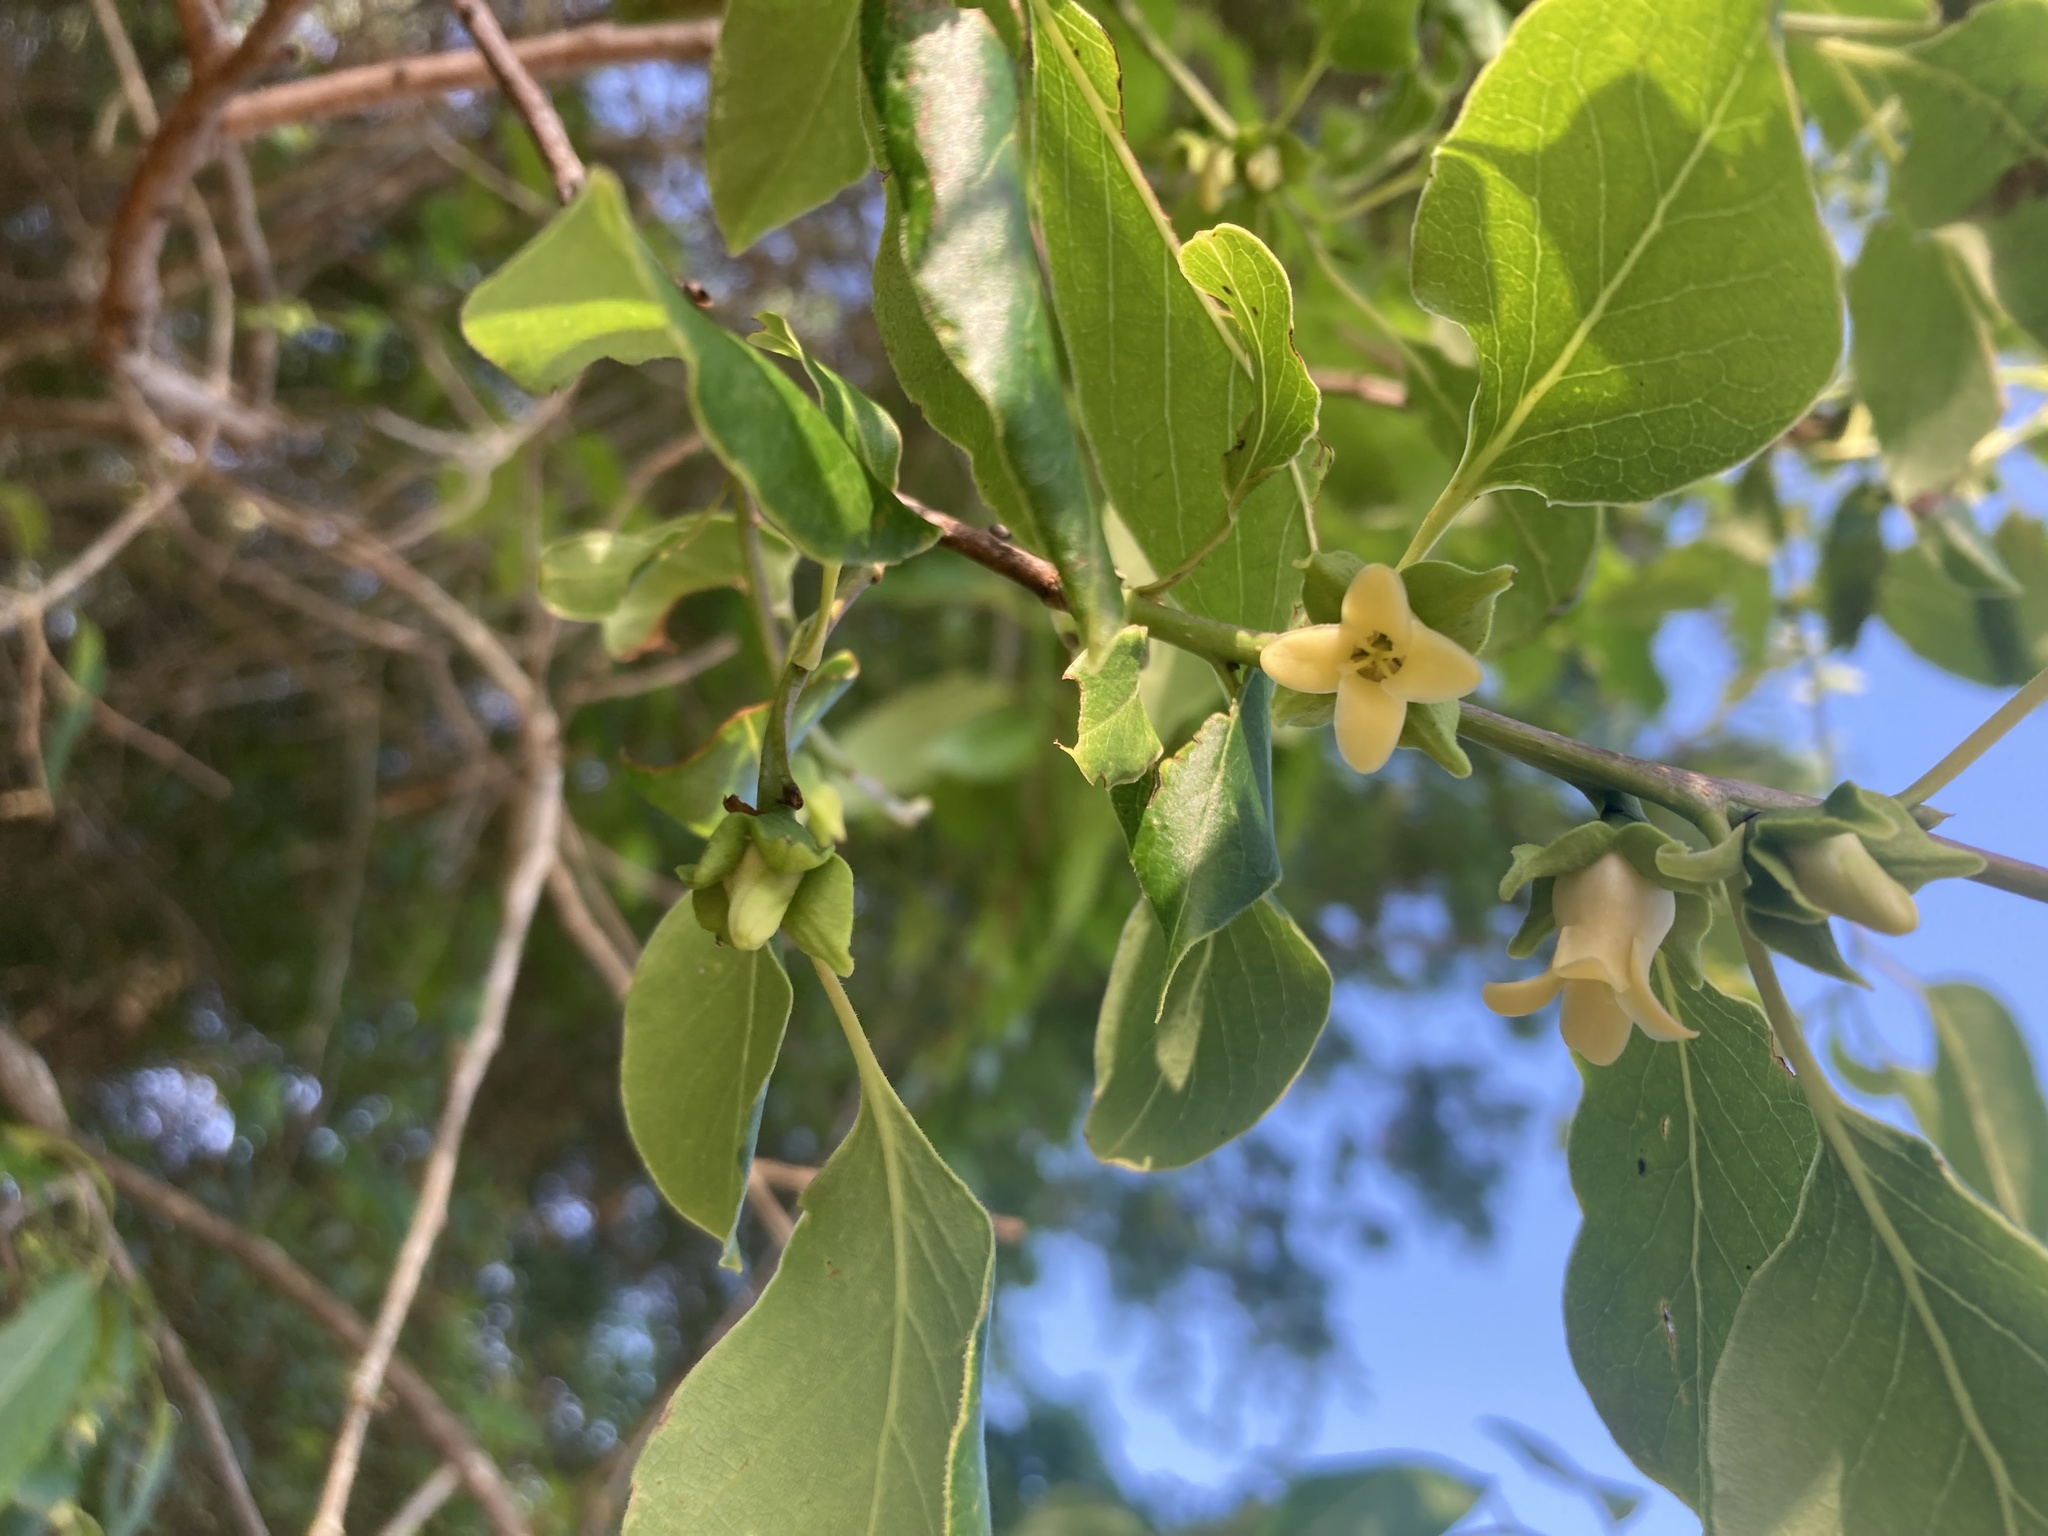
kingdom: Plantae
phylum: Tracheophyta
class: Magnoliopsida
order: Ericales
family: Ebenaceae
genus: Diospyros
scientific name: Diospyros virginiana
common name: Persimmon
